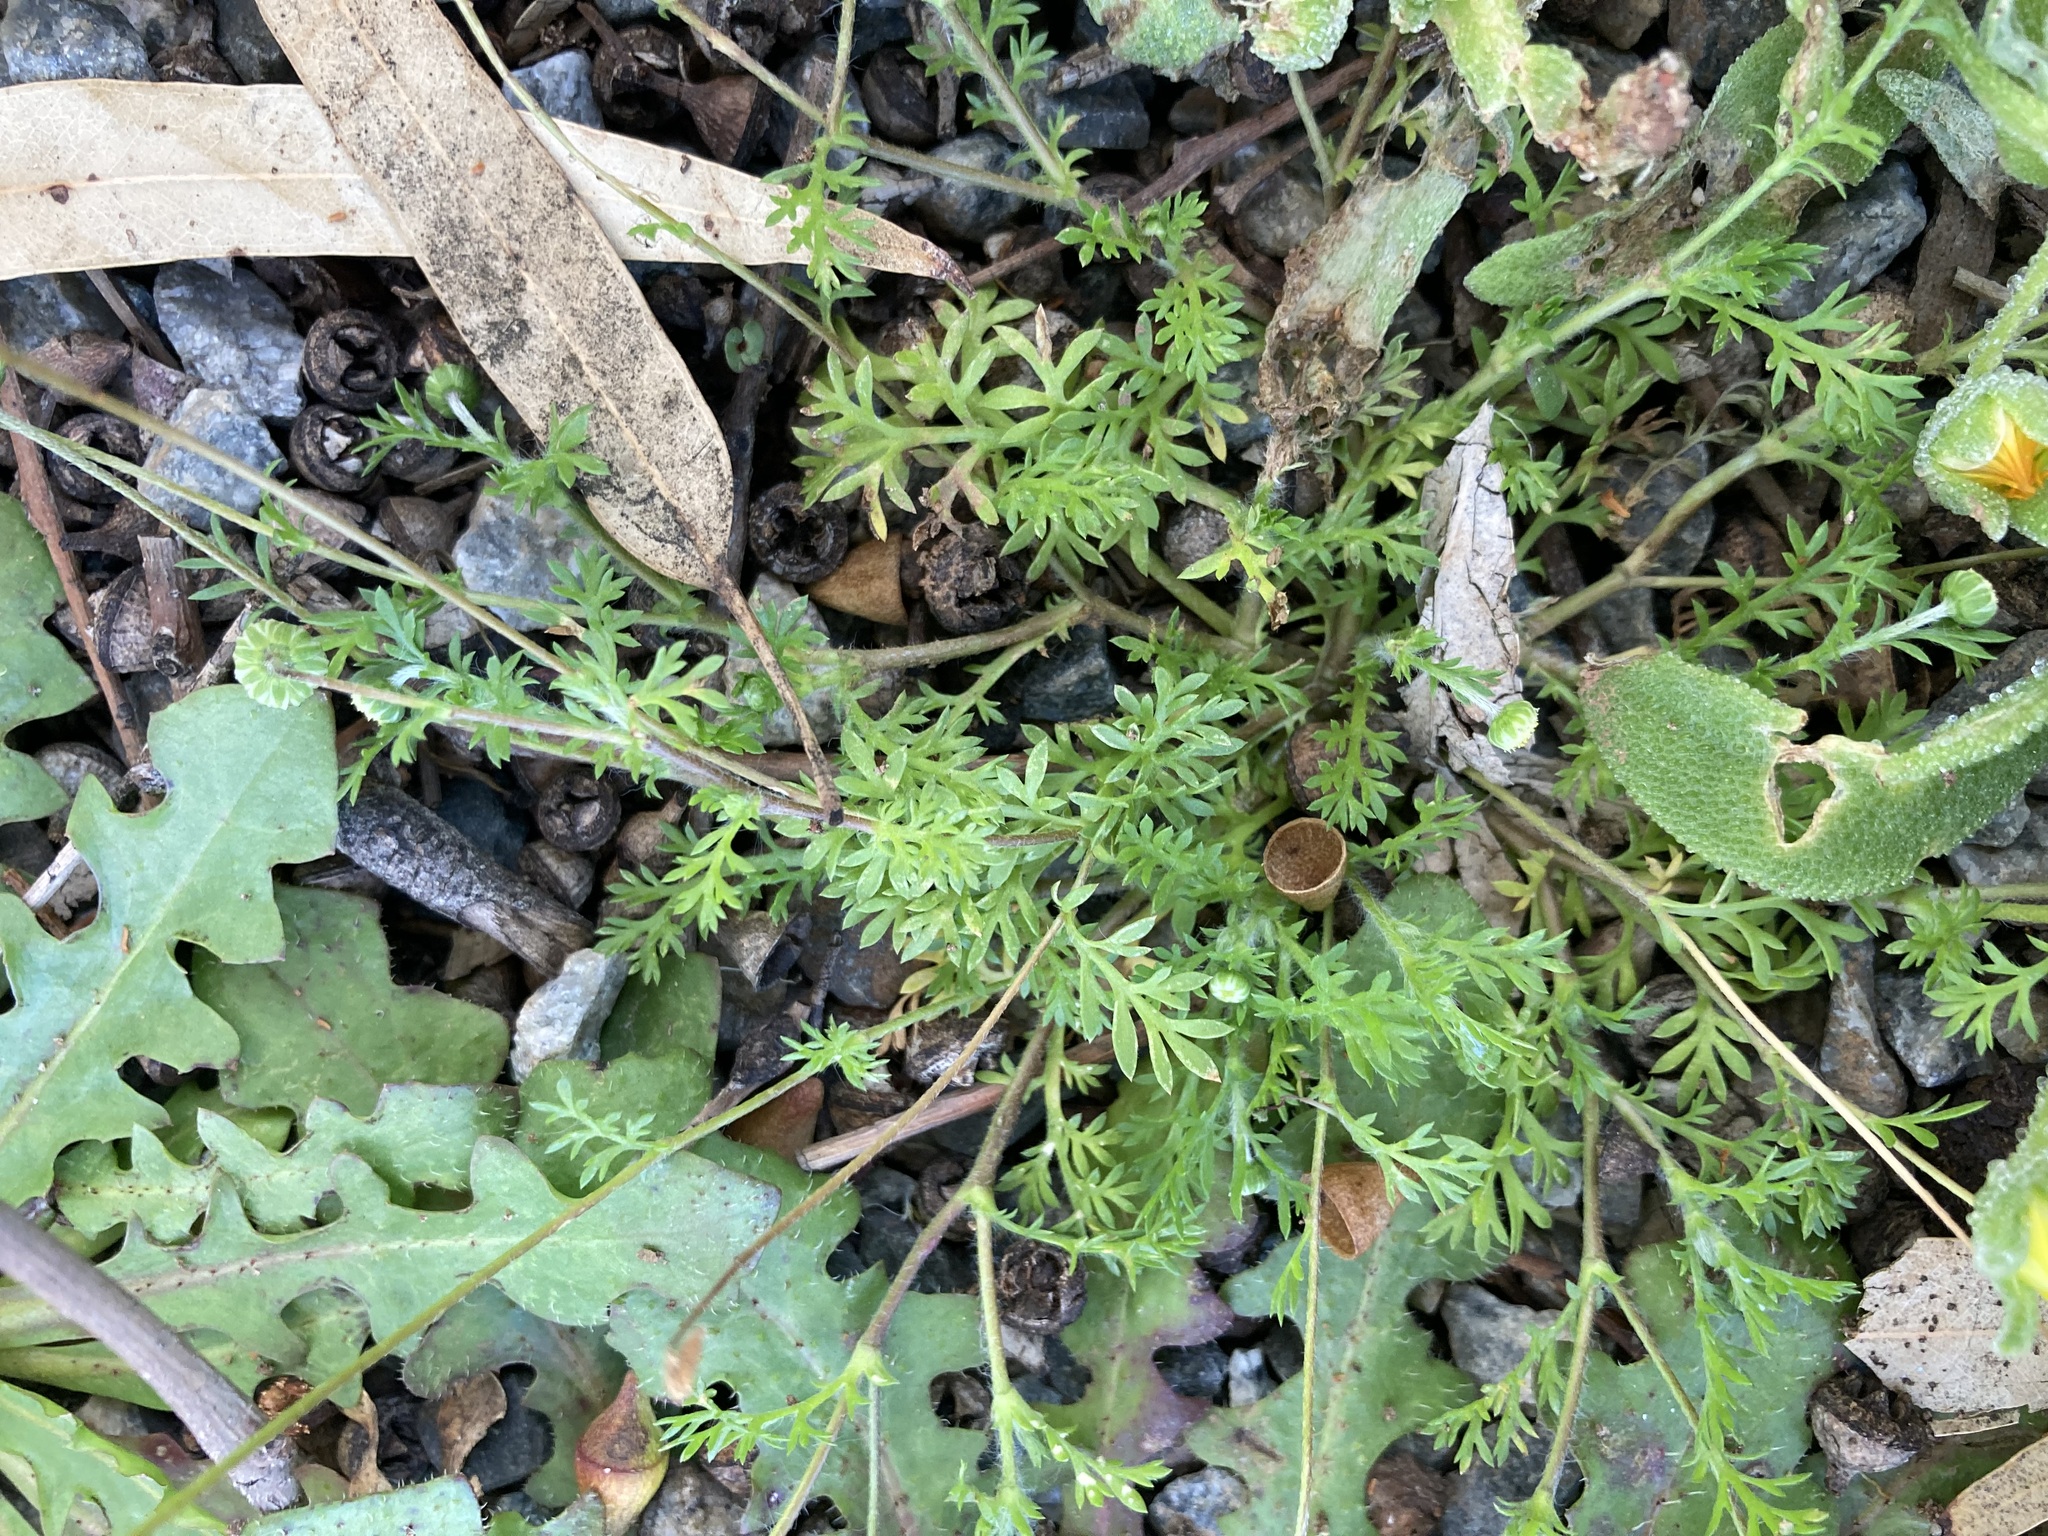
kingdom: Plantae
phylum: Tracheophyta
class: Magnoliopsida
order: Asterales
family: Asteraceae
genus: Cotula
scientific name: Cotula australis
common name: Australian waterbuttons
